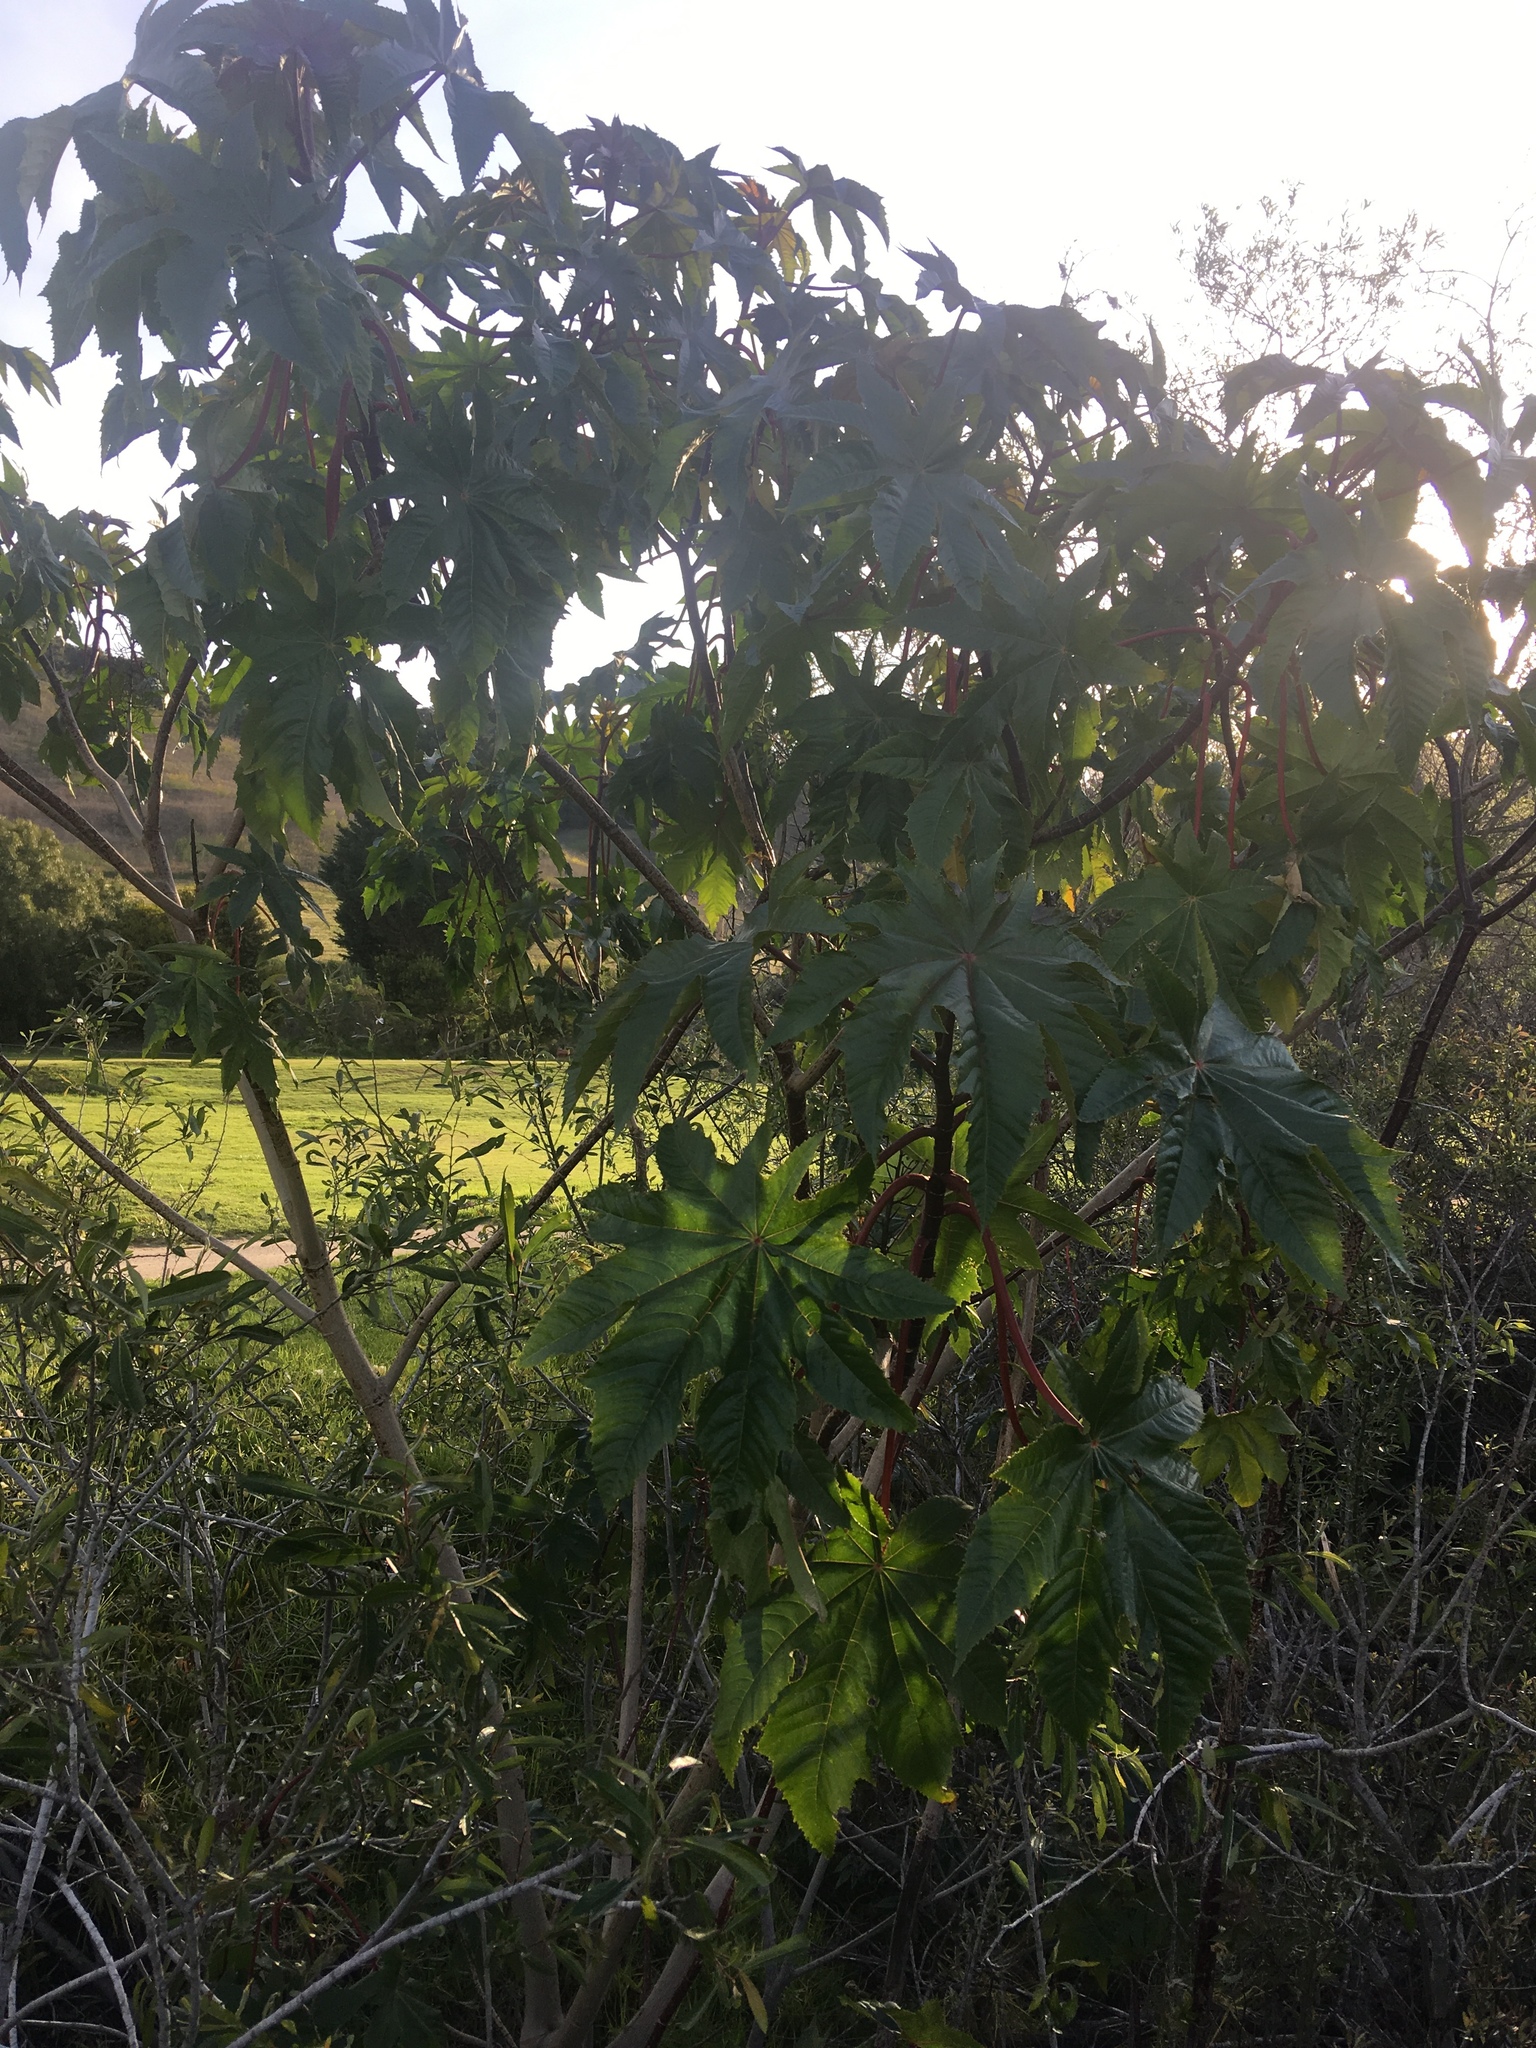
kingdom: Plantae
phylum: Tracheophyta
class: Magnoliopsida
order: Malpighiales
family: Euphorbiaceae
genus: Ricinus
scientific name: Ricinus communis
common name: Castor-oil-plant
